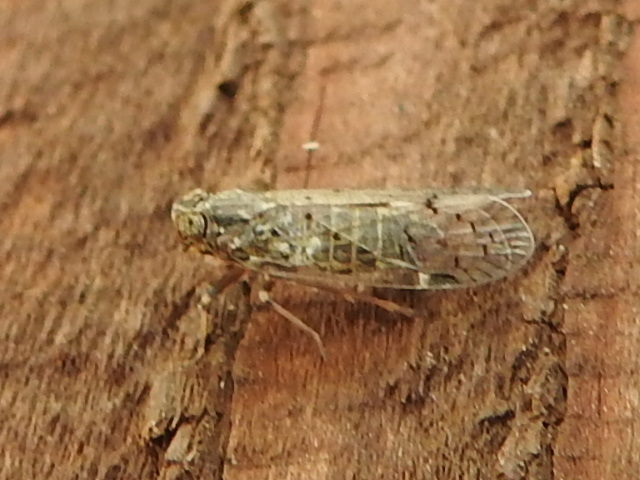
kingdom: Animalia
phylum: Arthropoda
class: Insecta
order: Hemiptera
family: Cixiidae
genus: Melanoliarus
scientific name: Melanoliarus aridus
